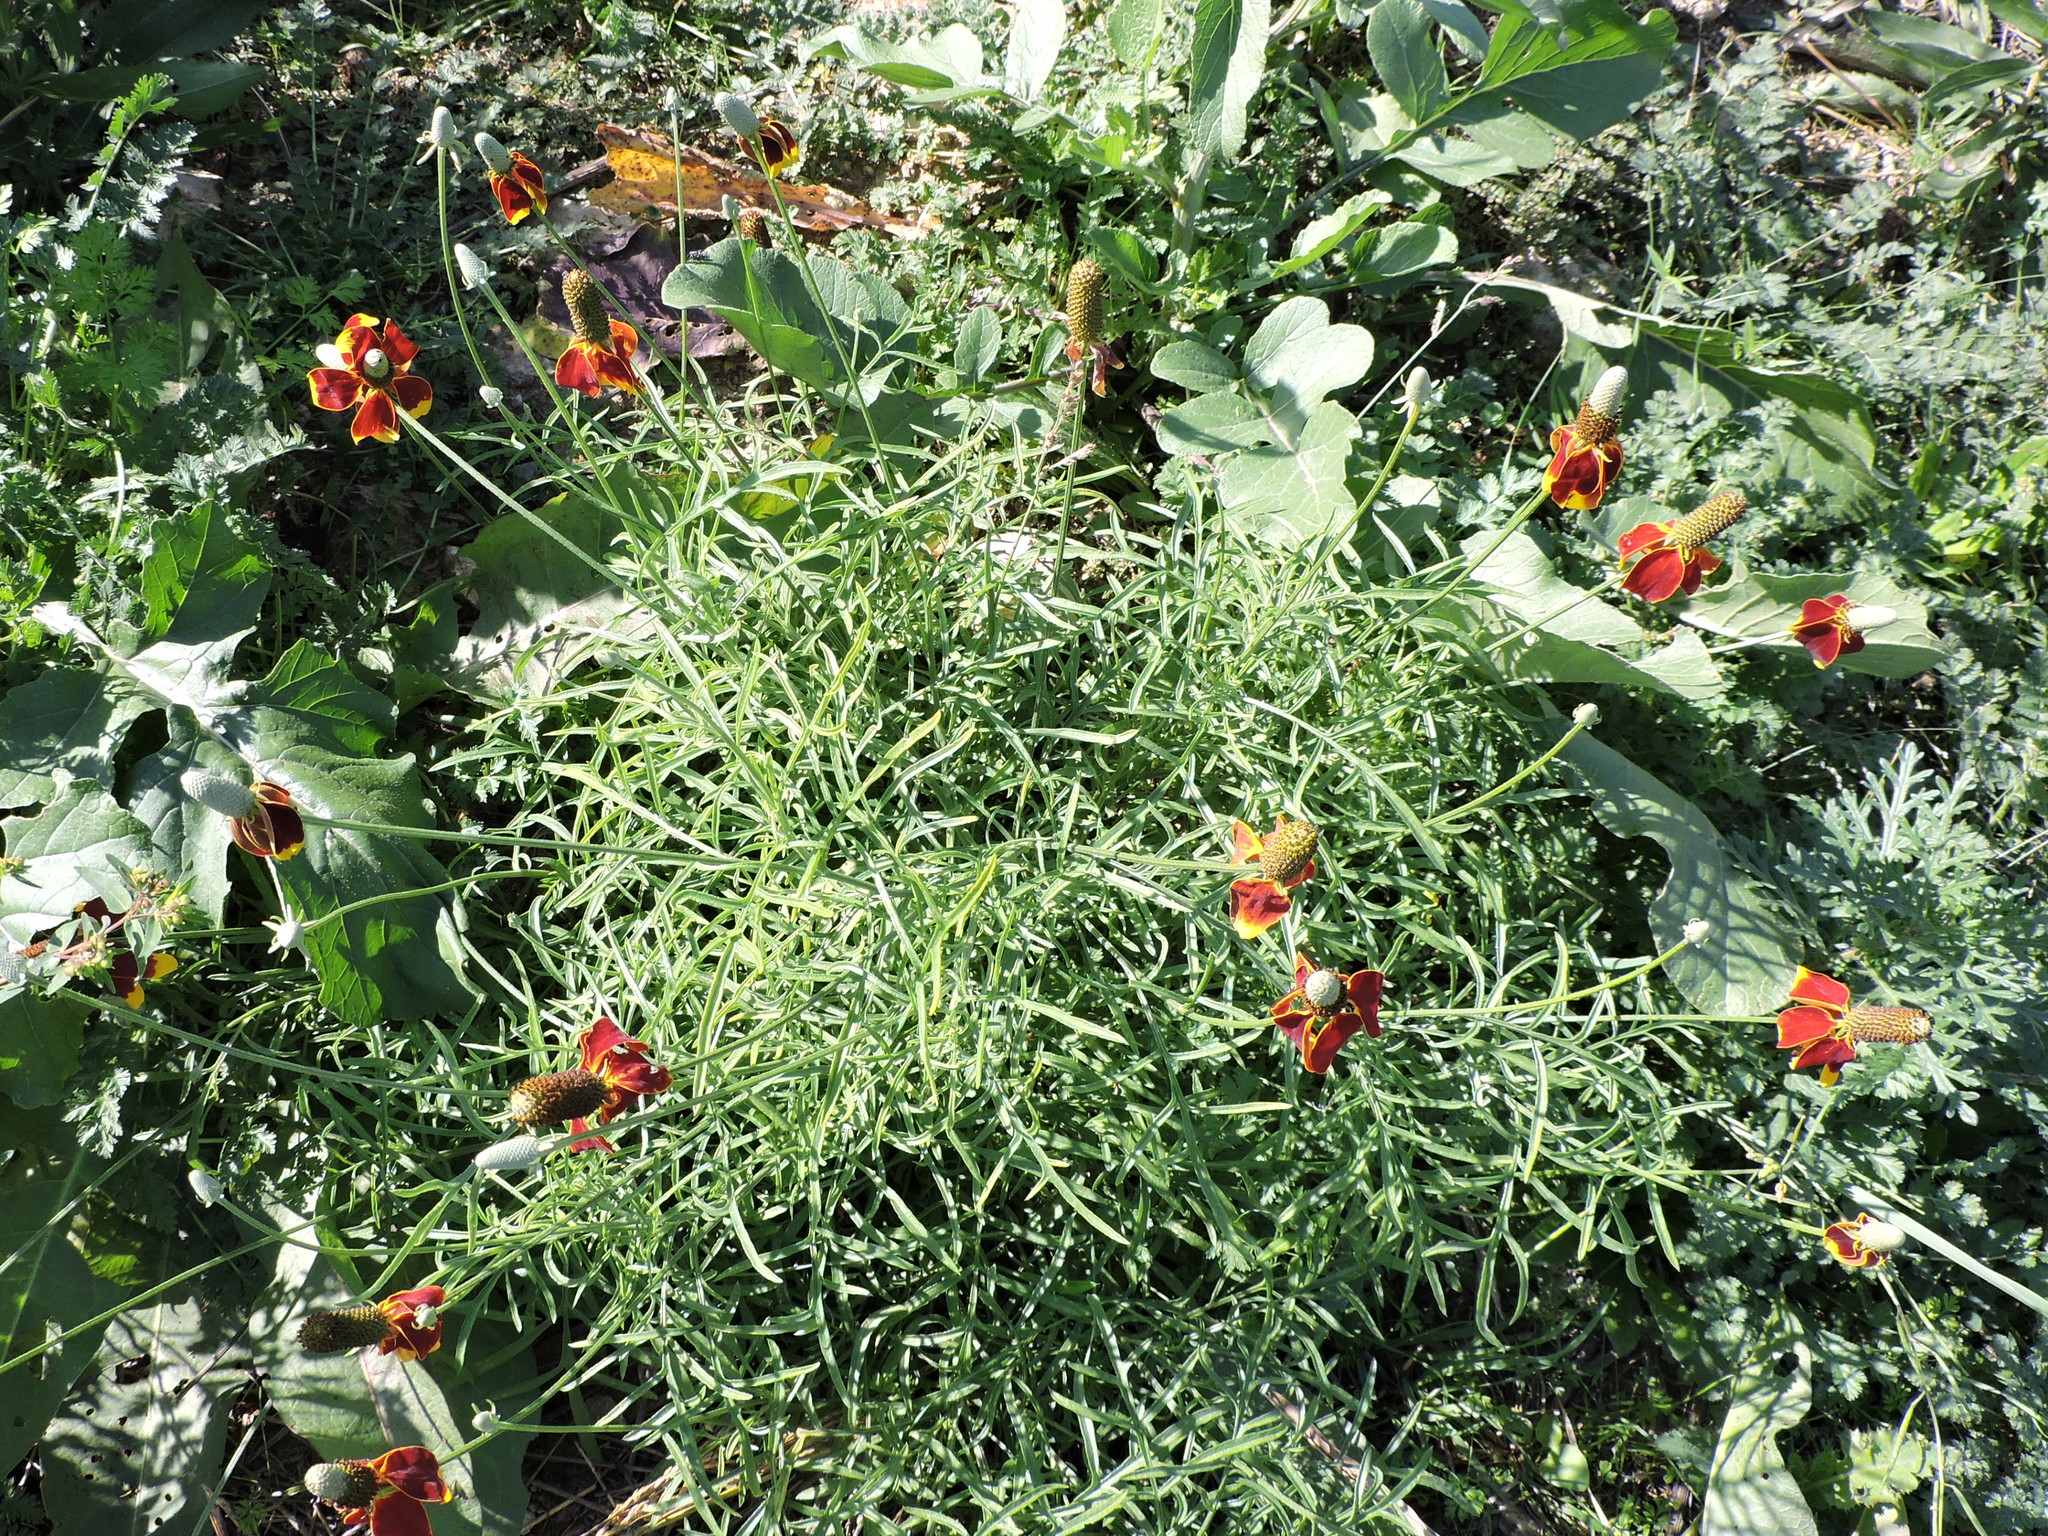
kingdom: Plantae
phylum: Tracheophyta
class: Magnoliopsida
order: Asterales
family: Asteraceae
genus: Ratibida
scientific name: Ratibida columnifera
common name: Prairie coneflower
